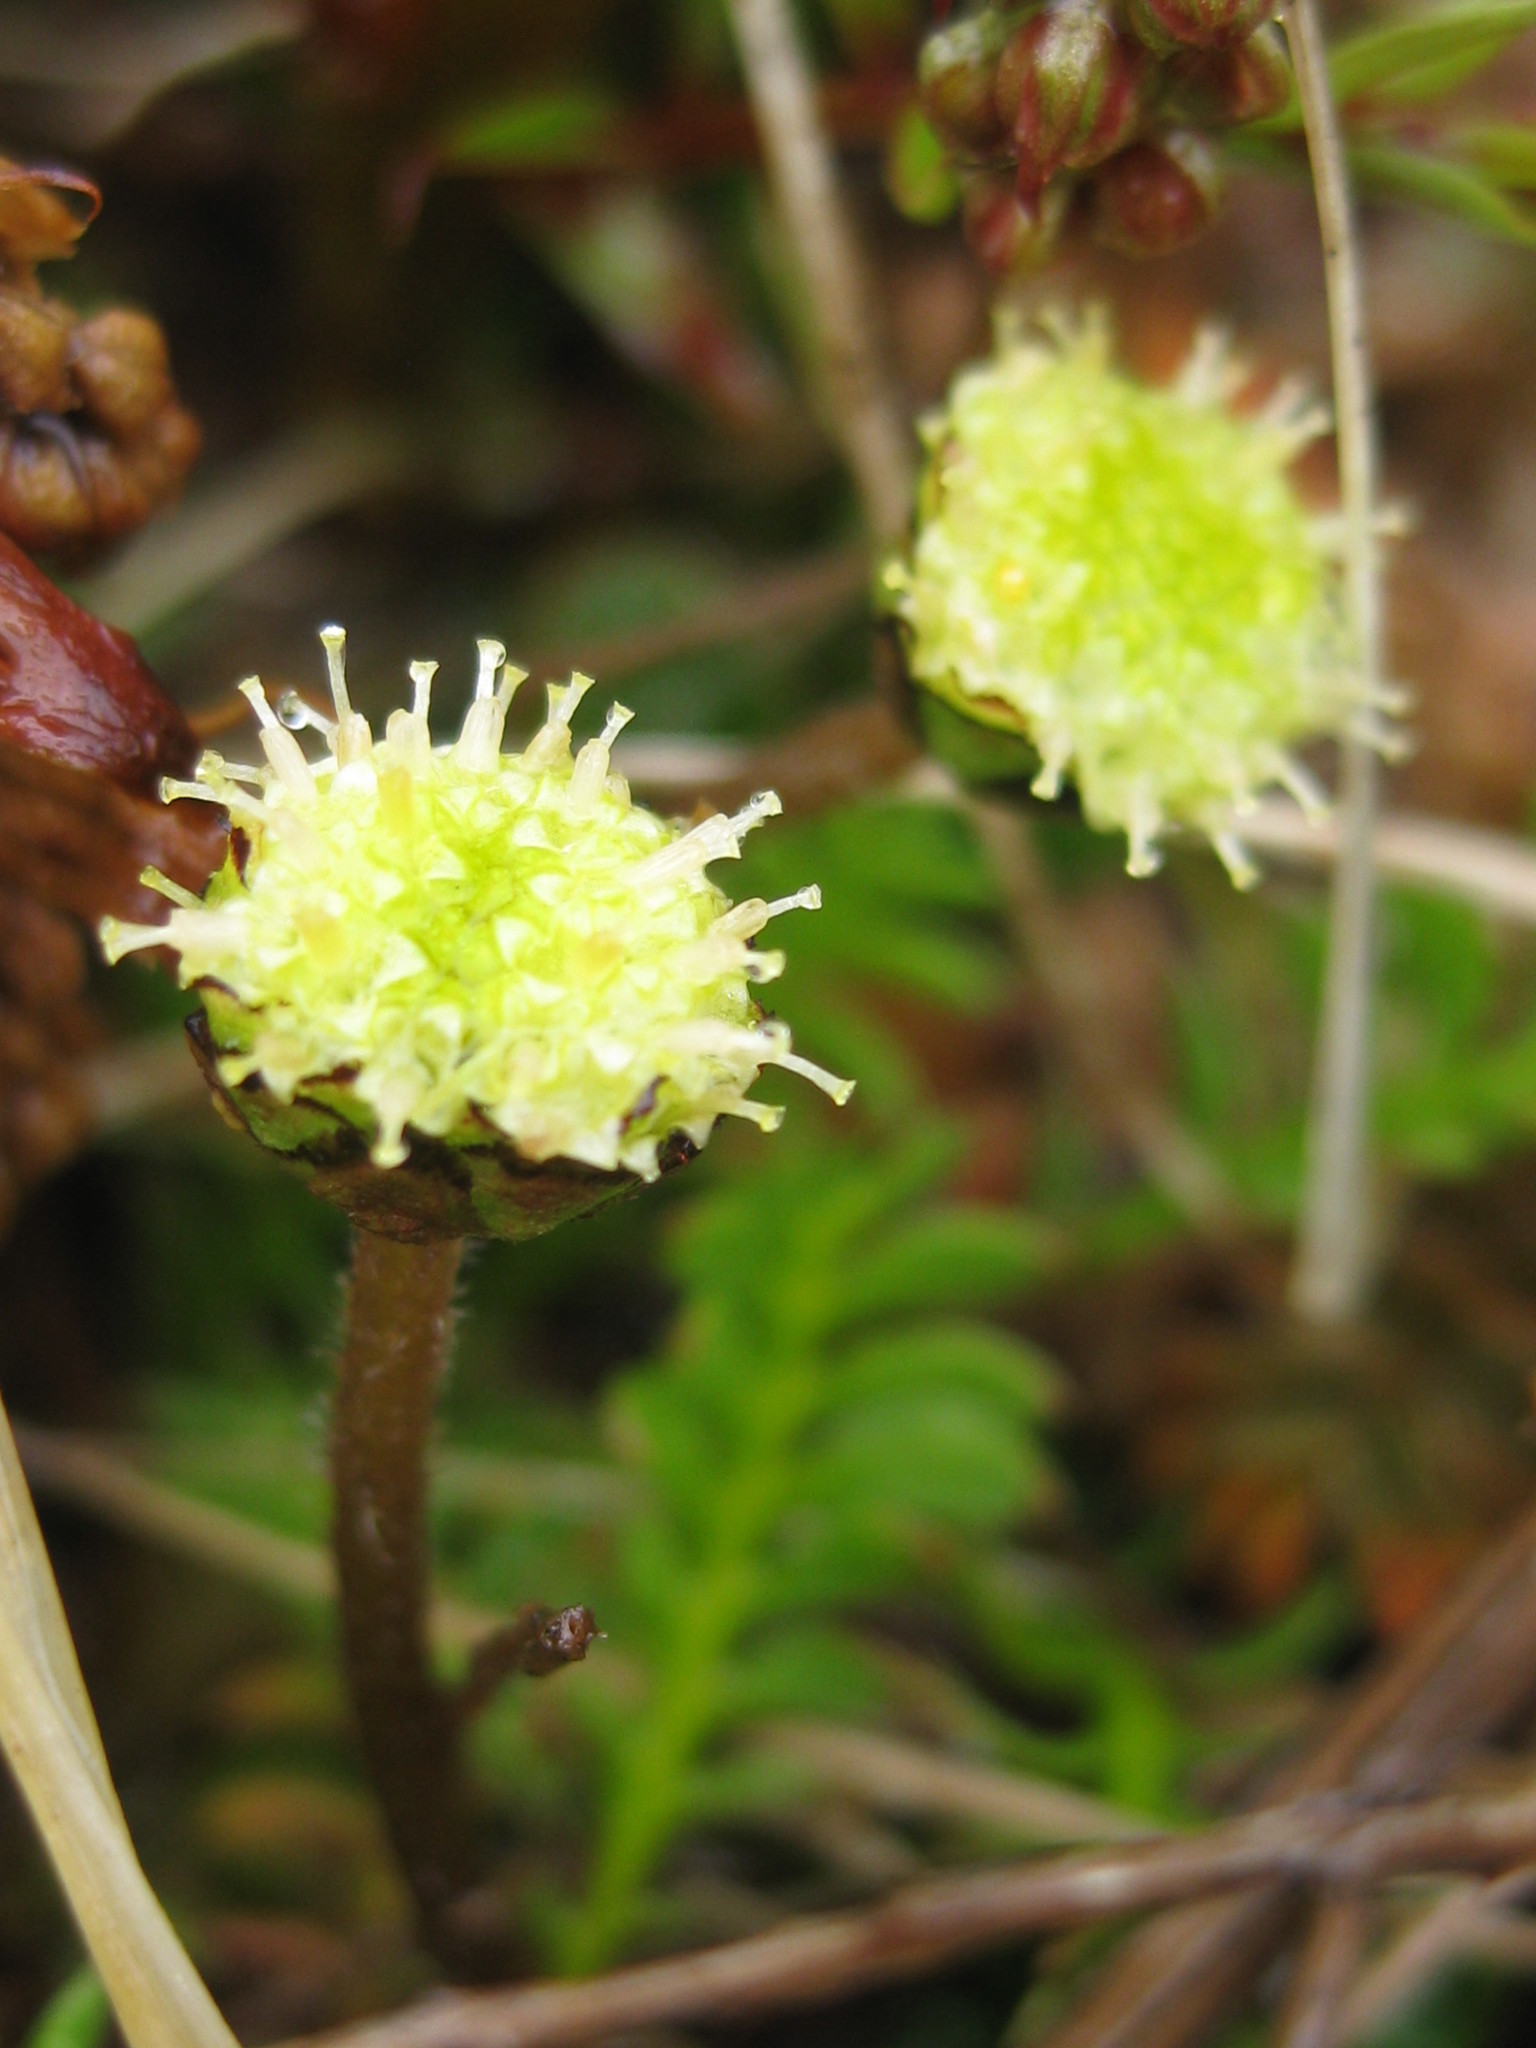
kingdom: Plantae
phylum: Tracheophyta
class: Magnoliopsida
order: Asterales
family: Asteraceae
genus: Leptinella
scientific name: Leptinella squalida
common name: New zealand brass-buttons
